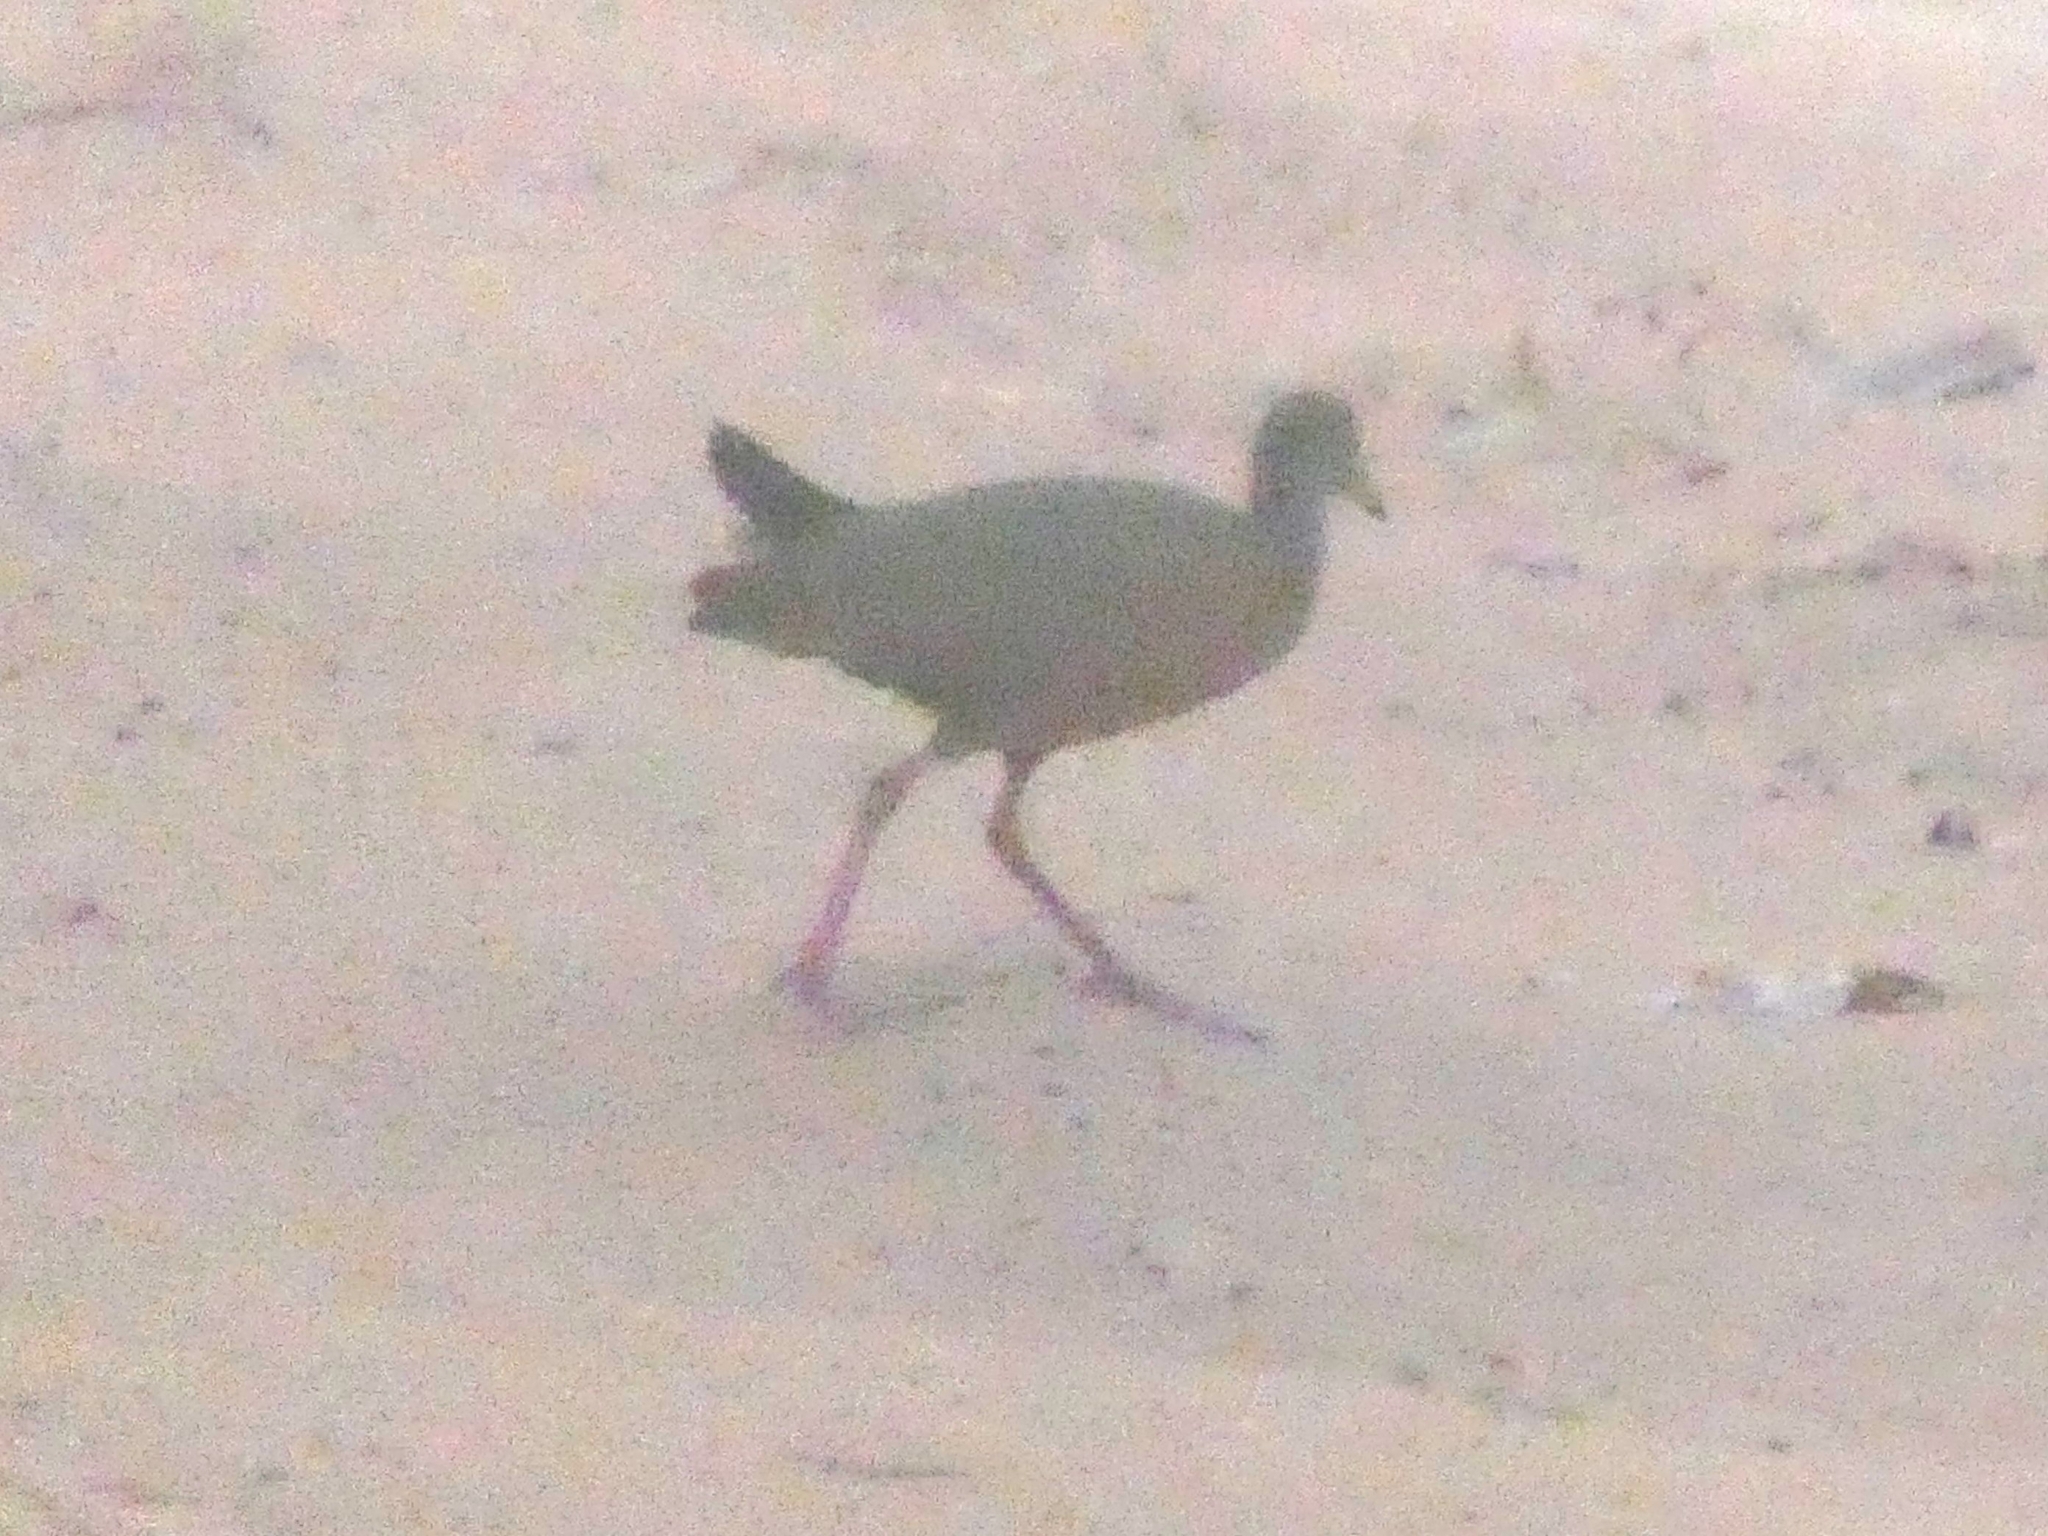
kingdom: Animalia
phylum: Chordata
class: Aves
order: Gruiformes
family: Rallidae
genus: Aramides
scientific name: Aramides cajanea
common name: Gray-necked wood-rail
